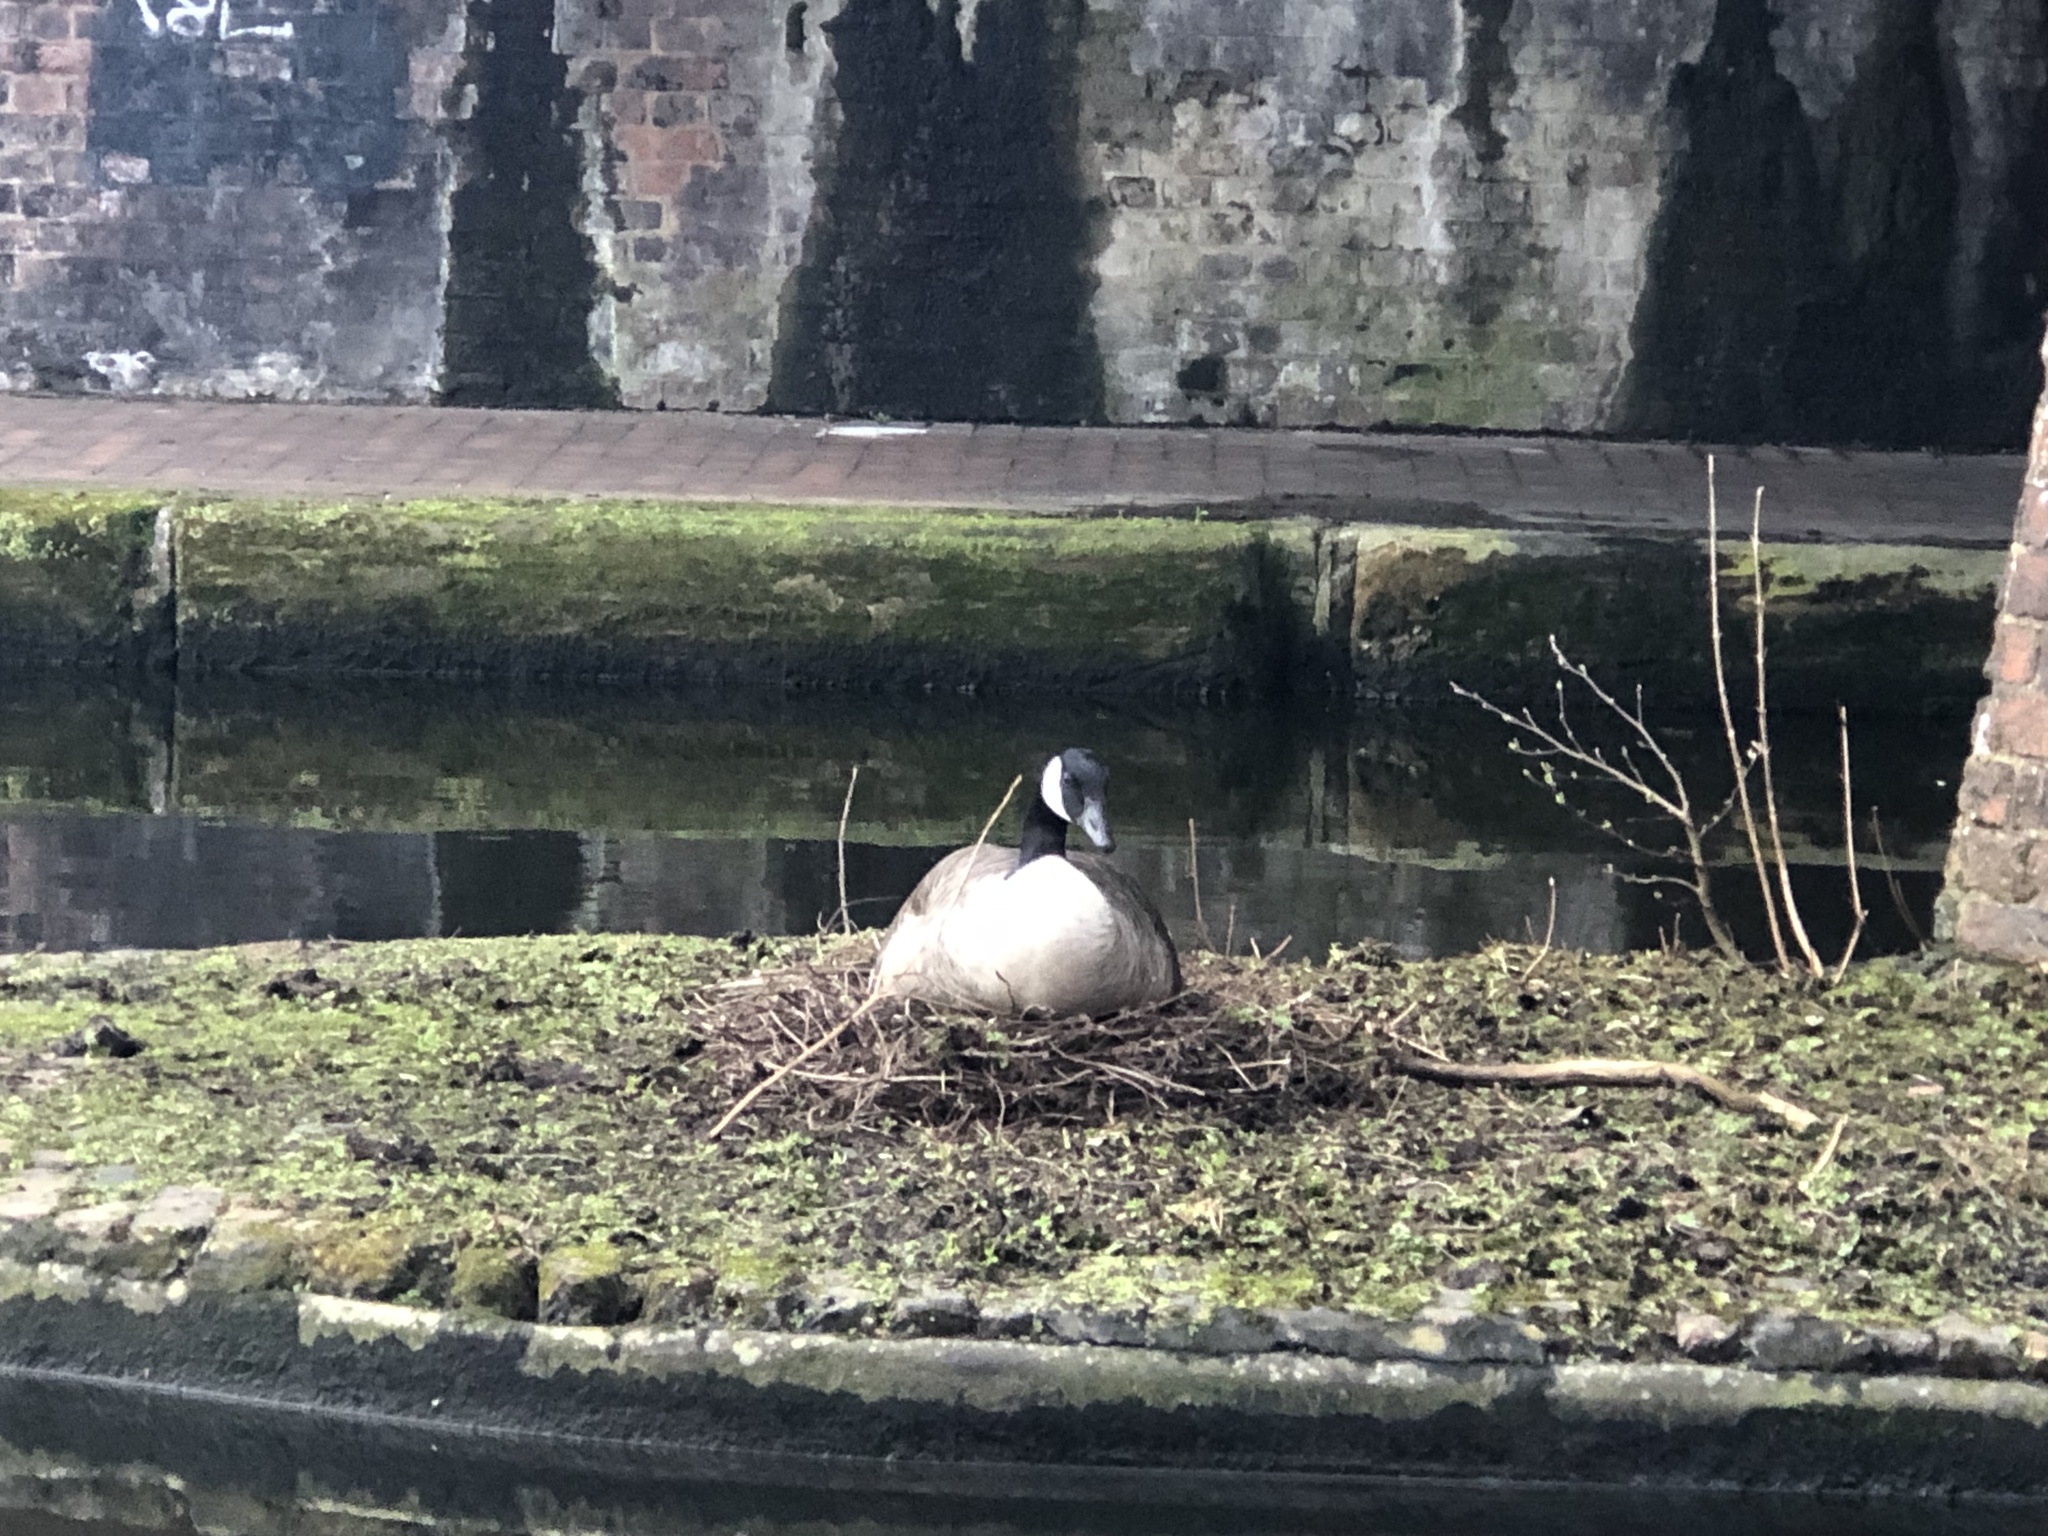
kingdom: Animalia
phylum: Chordata
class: Aves
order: Anseriformes
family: Anatidae
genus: Branta
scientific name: Branta canadensis
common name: Canada goose
